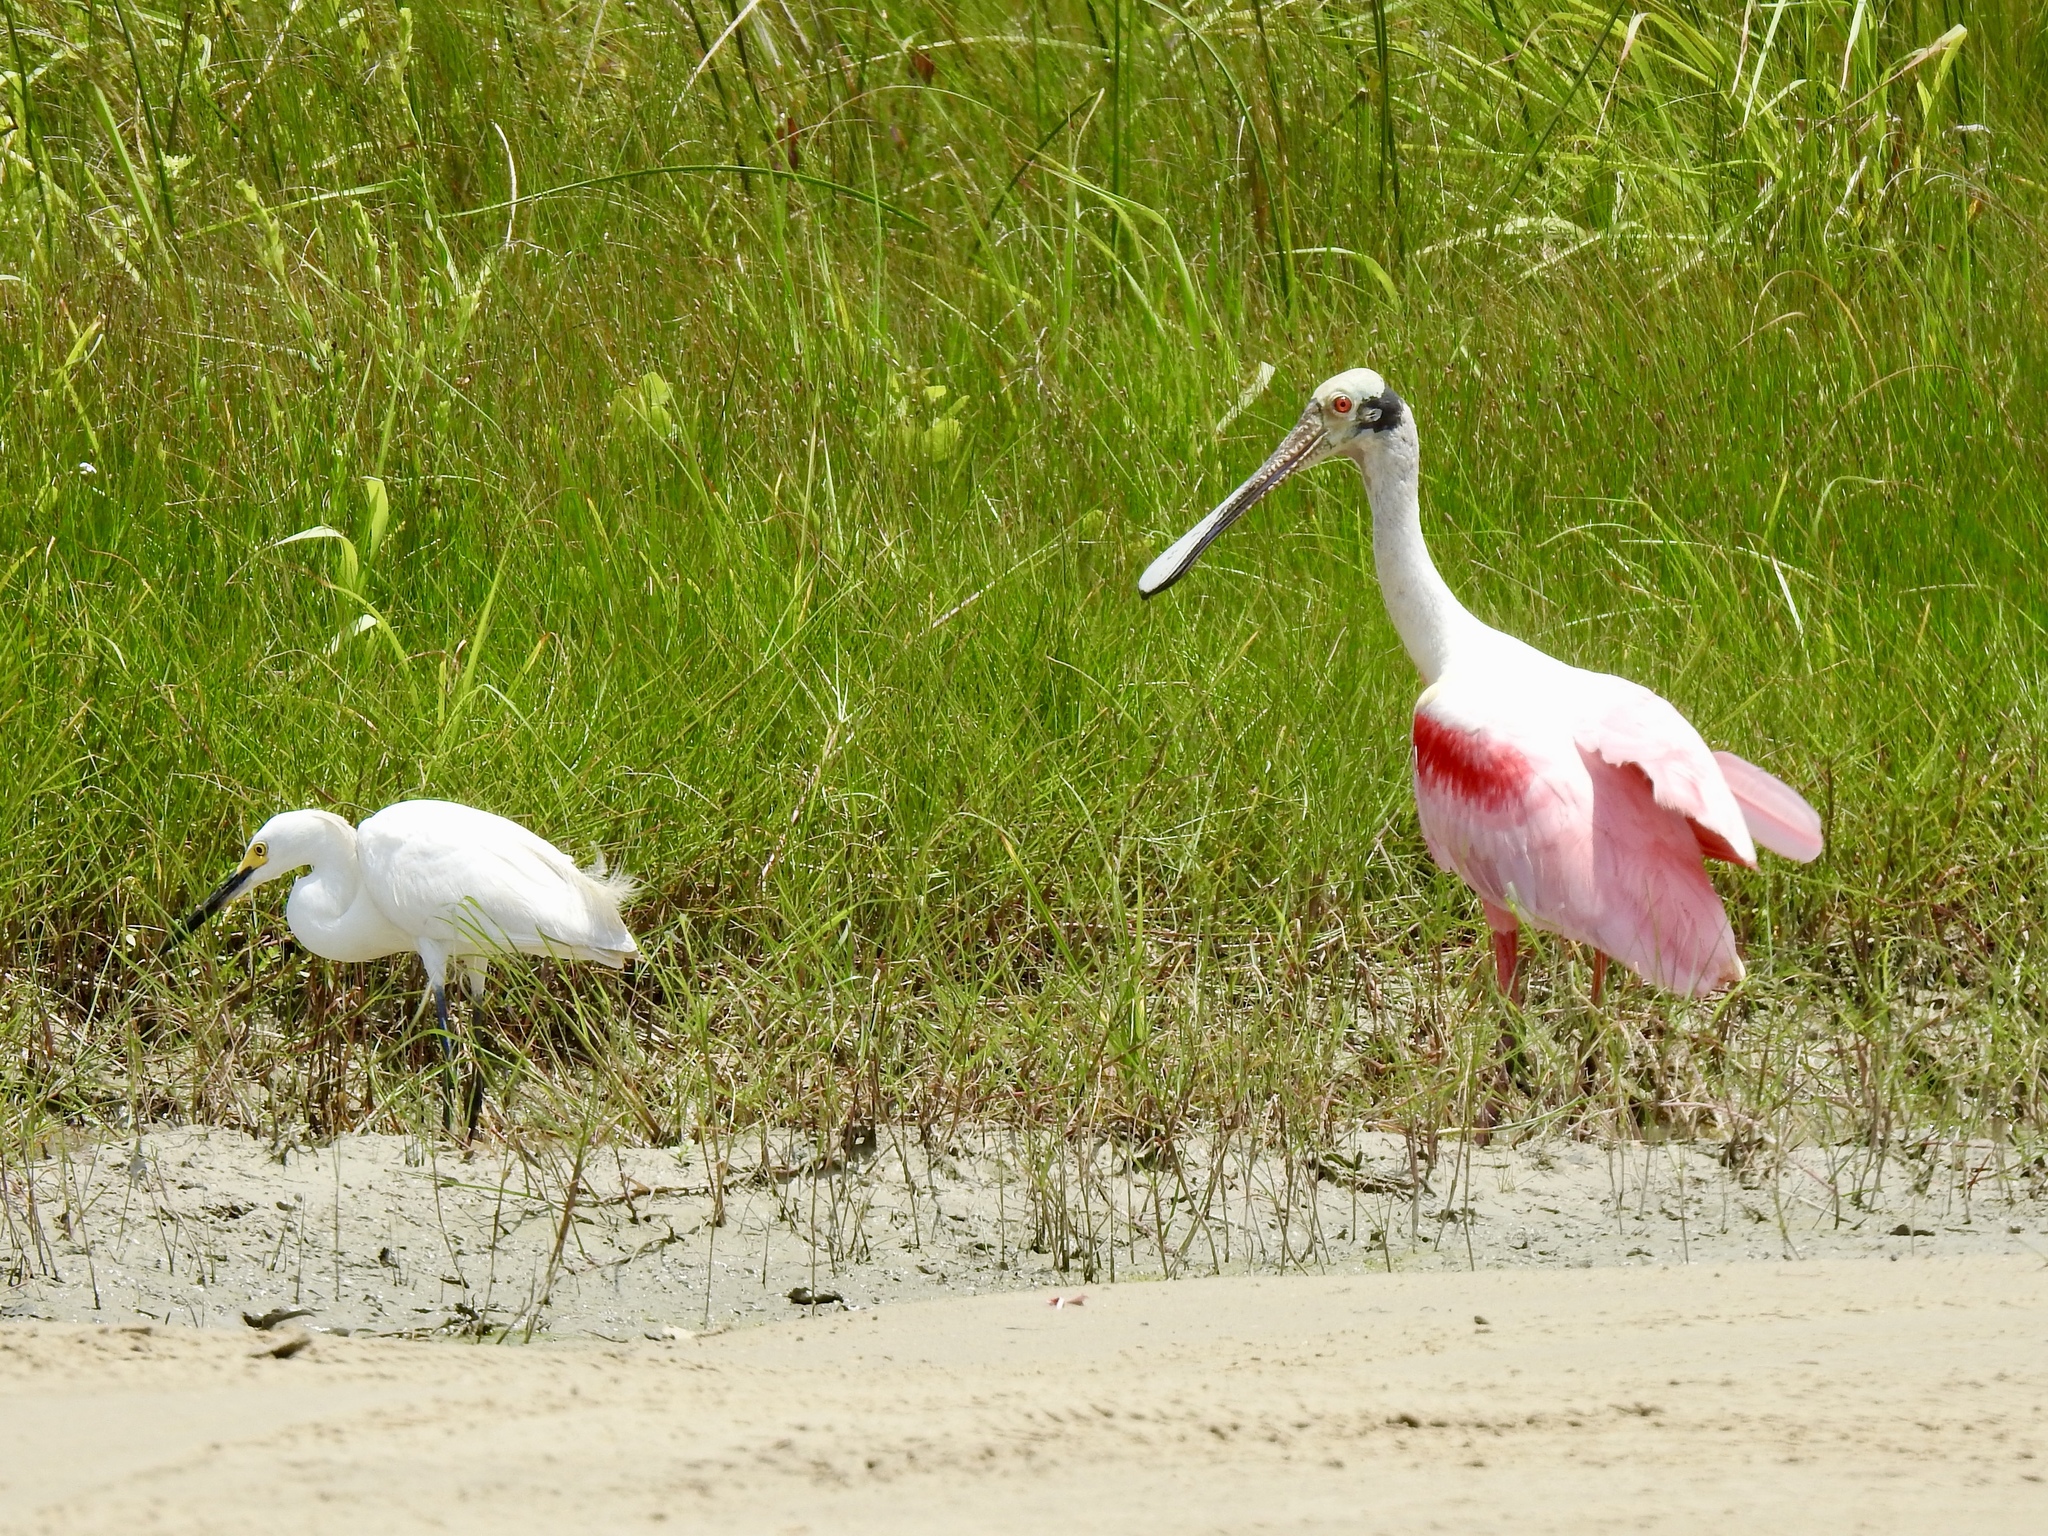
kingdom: Animalia
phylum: Chordata
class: Aves
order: Pelecaniformes
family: Threskiornithidae
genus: Platalea
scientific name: Platalea ajaja
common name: Roseate spoonbill
